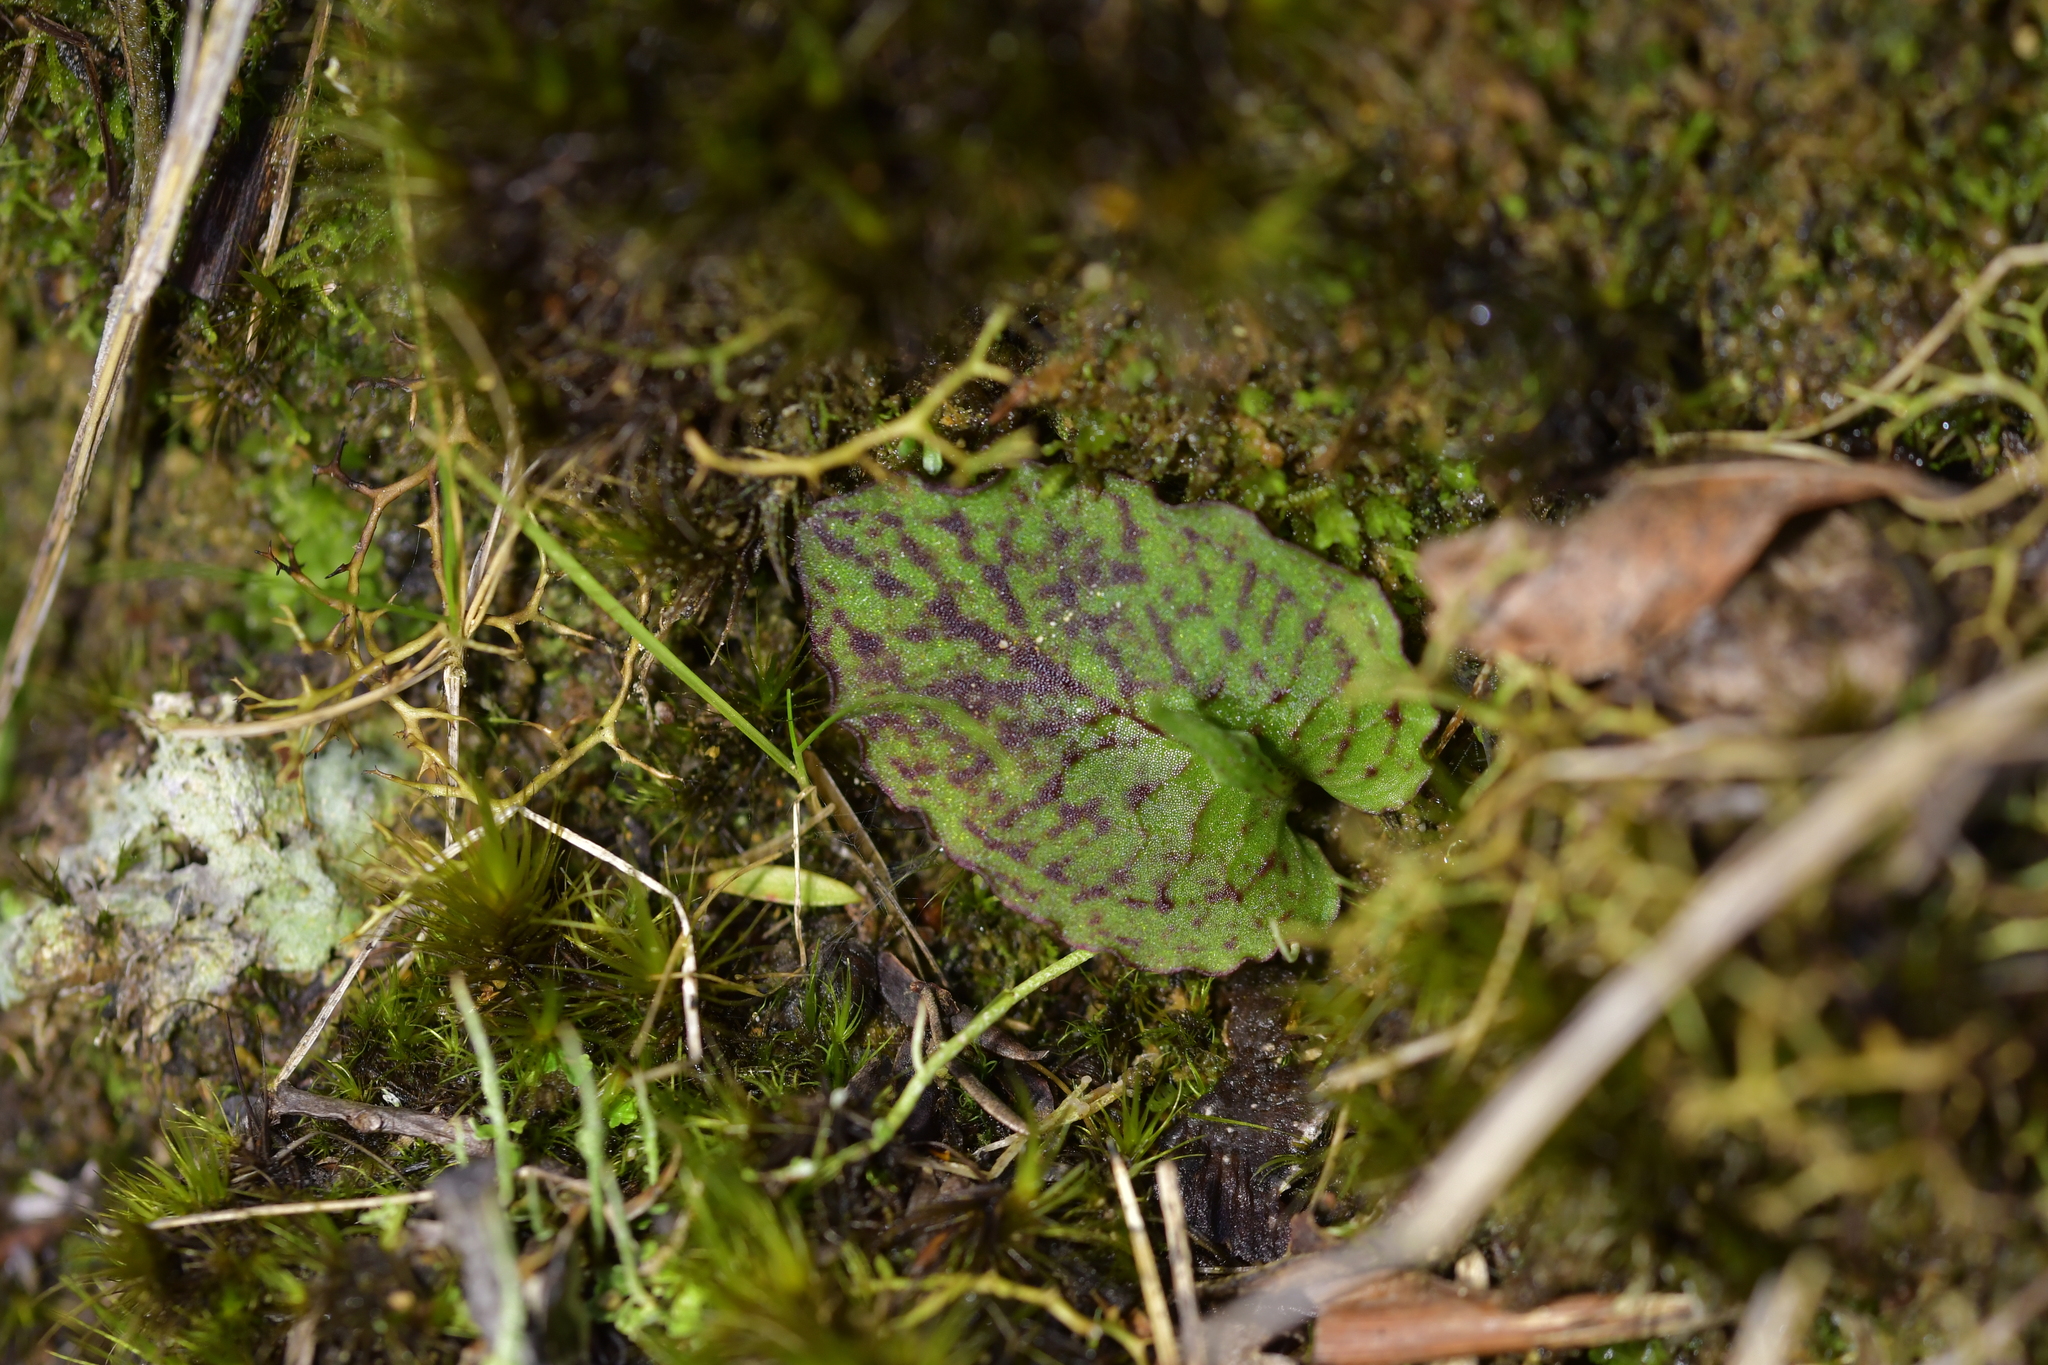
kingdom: Plantae
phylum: Tracheophyta
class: Liliopsida
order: Asparagales
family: Orchidaceae
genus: Corybas
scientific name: Corybas oblongus
